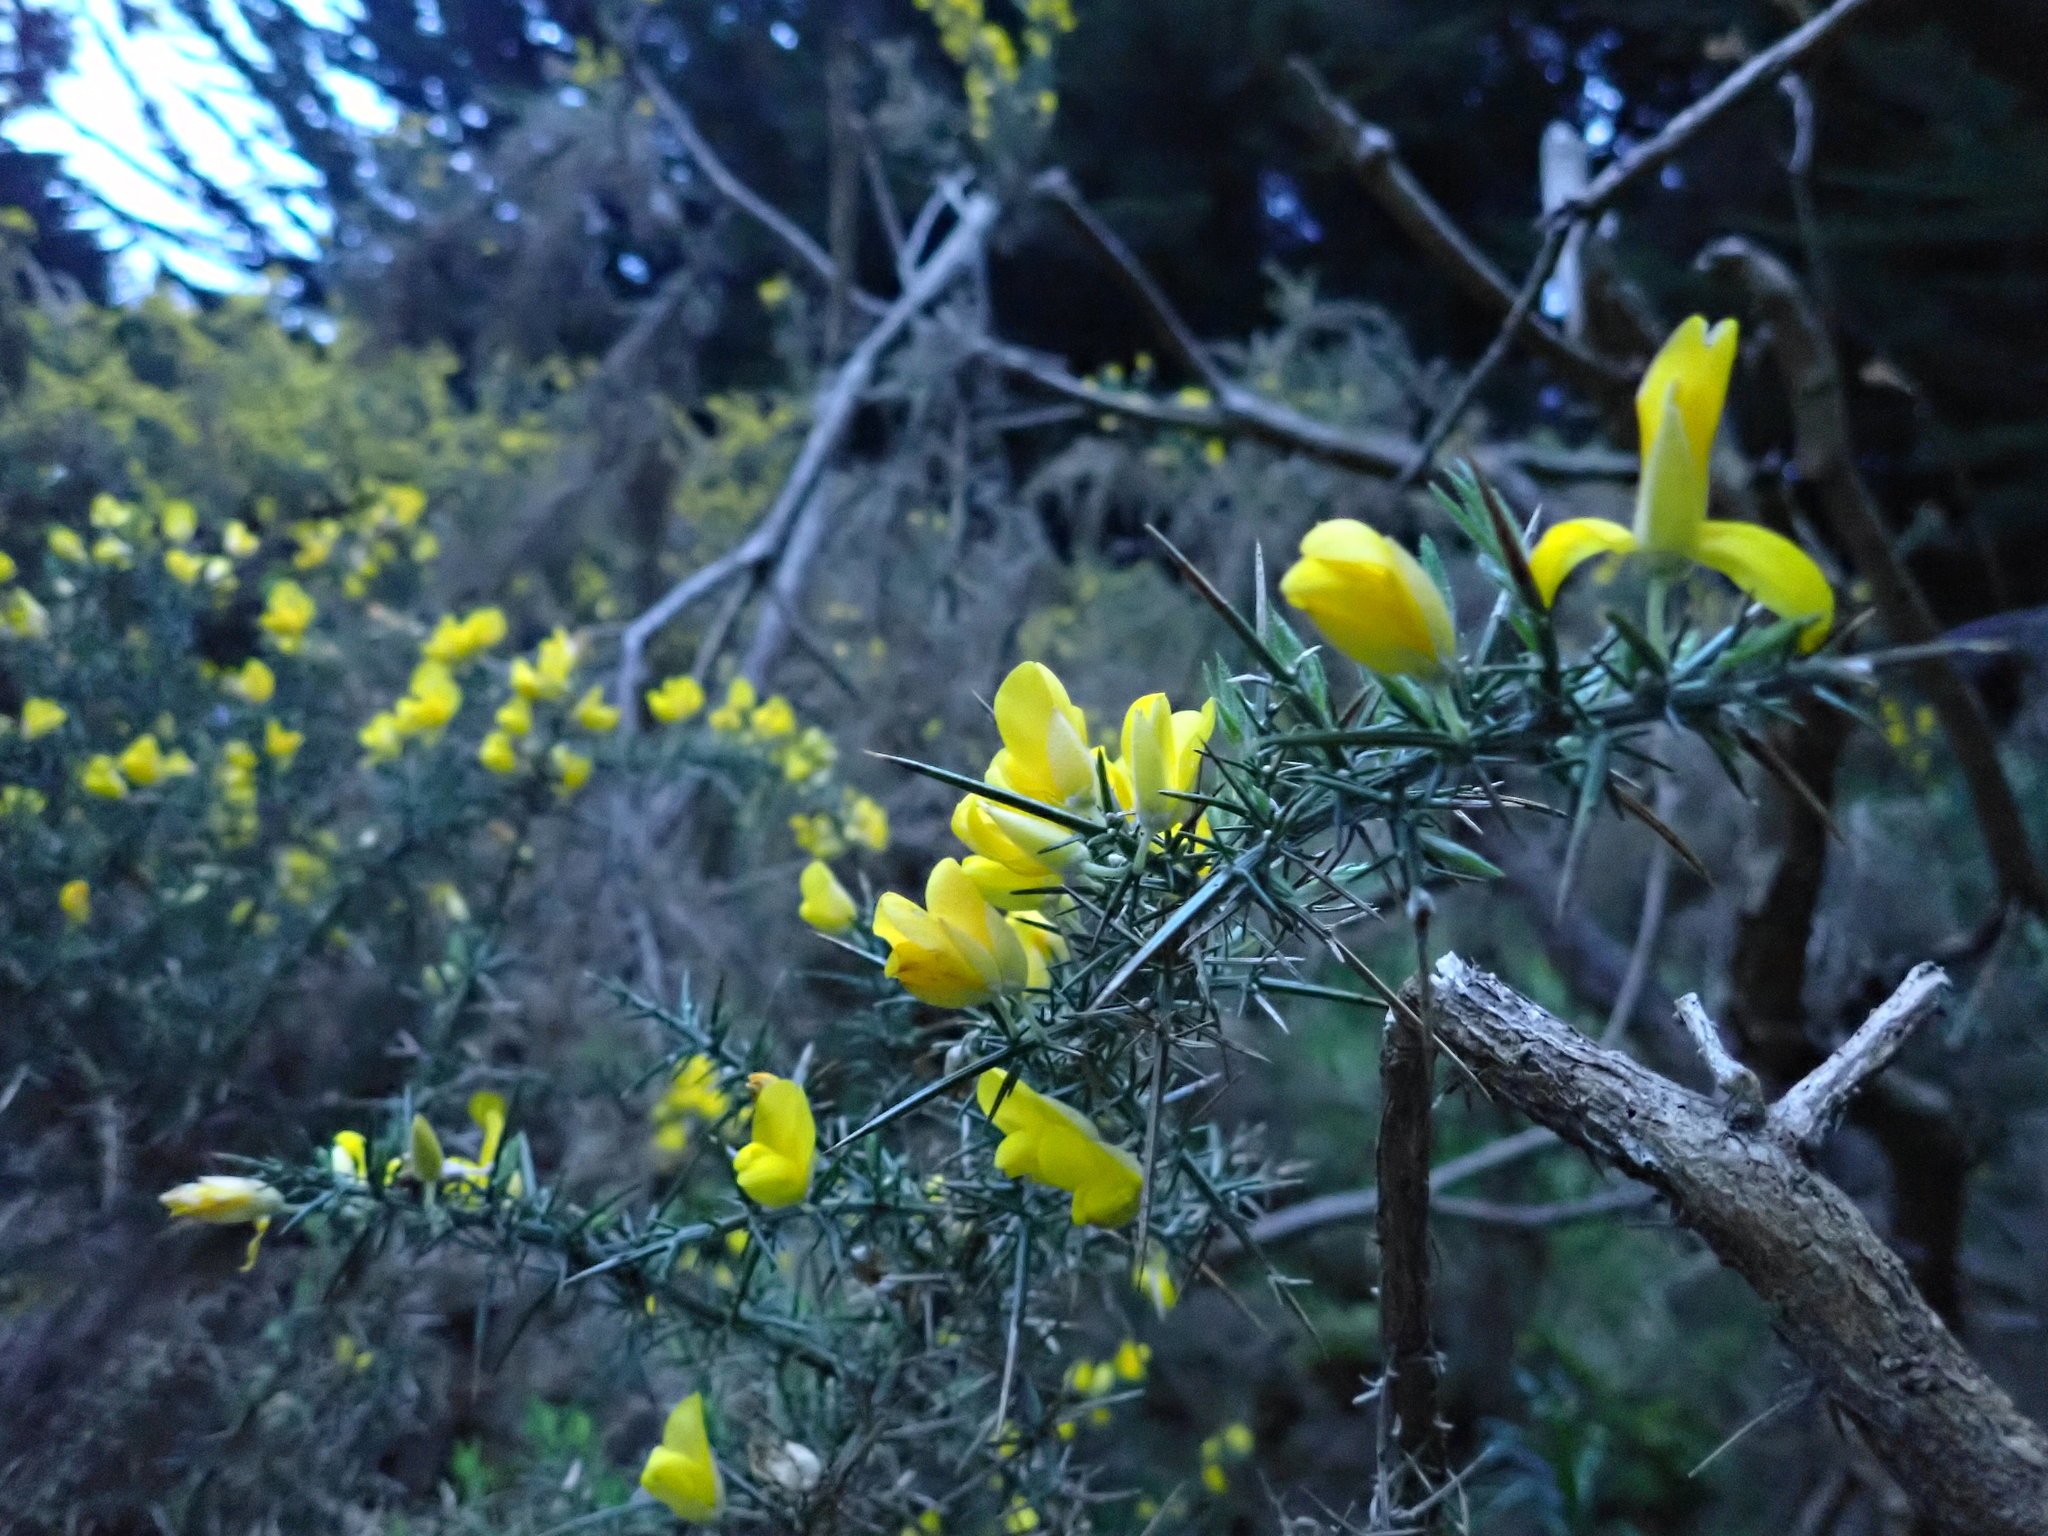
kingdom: Plantae
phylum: Tracheophyta
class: Magnoliopsida
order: Fabales
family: Fabaceae
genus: Ulex
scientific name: Ulex europaeus
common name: Common gorse
